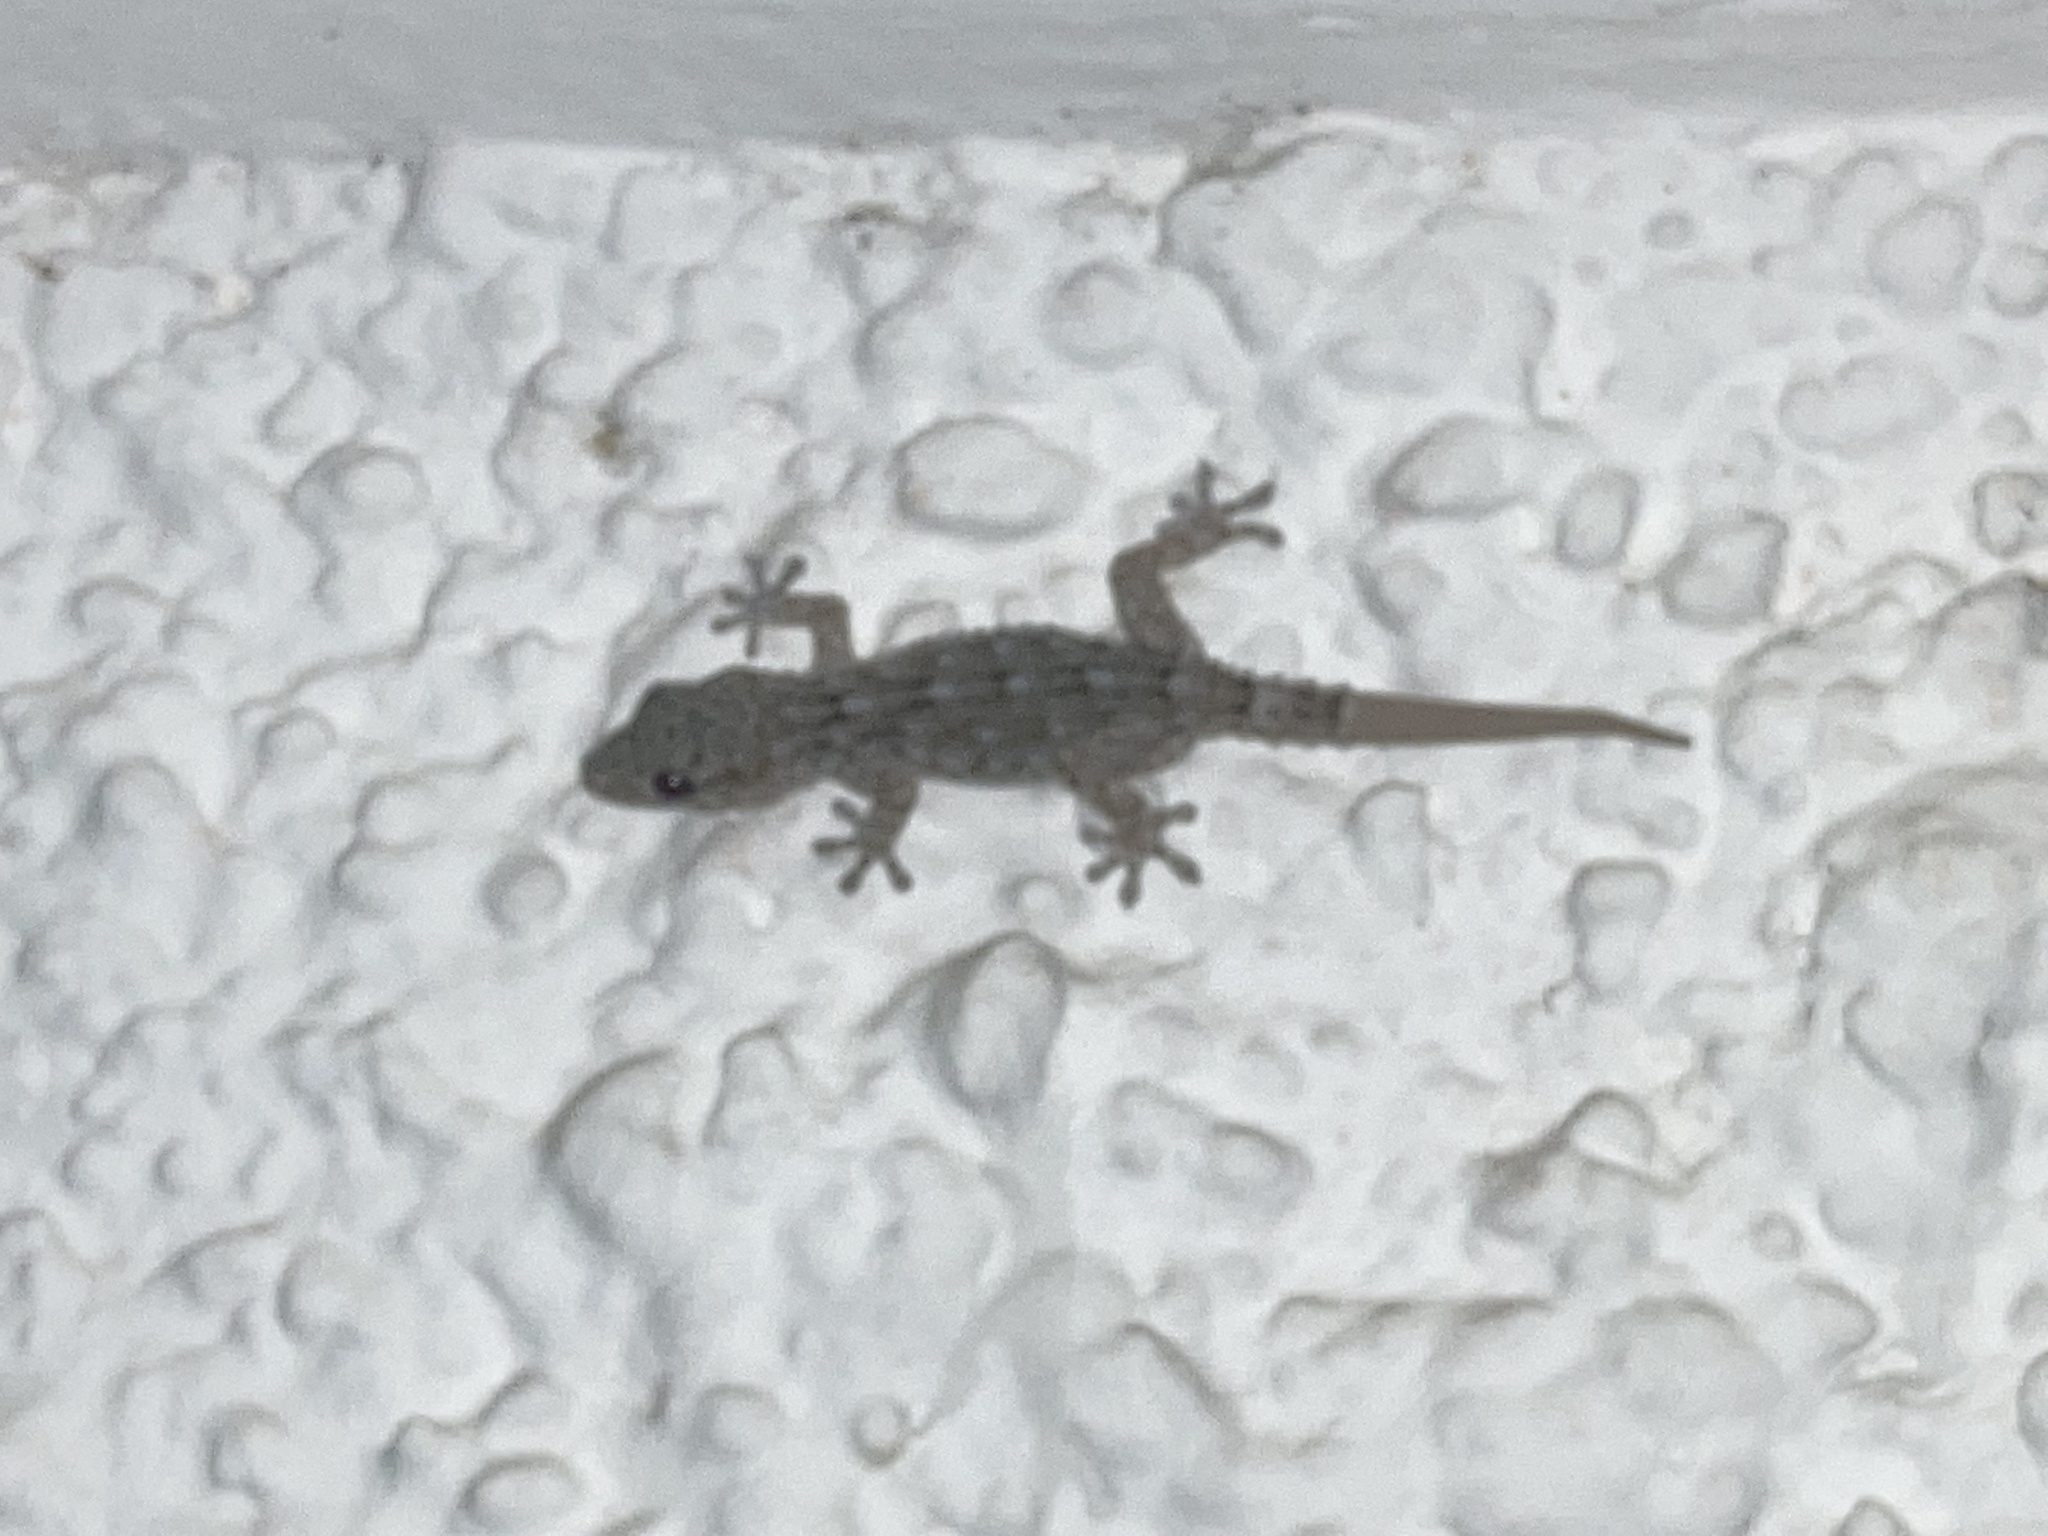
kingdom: Animalia
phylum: Chordata
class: Squamata
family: Phyllodactylidae
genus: Tarentola
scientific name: Tarentola delalandii
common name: Tenerife wall gecko
